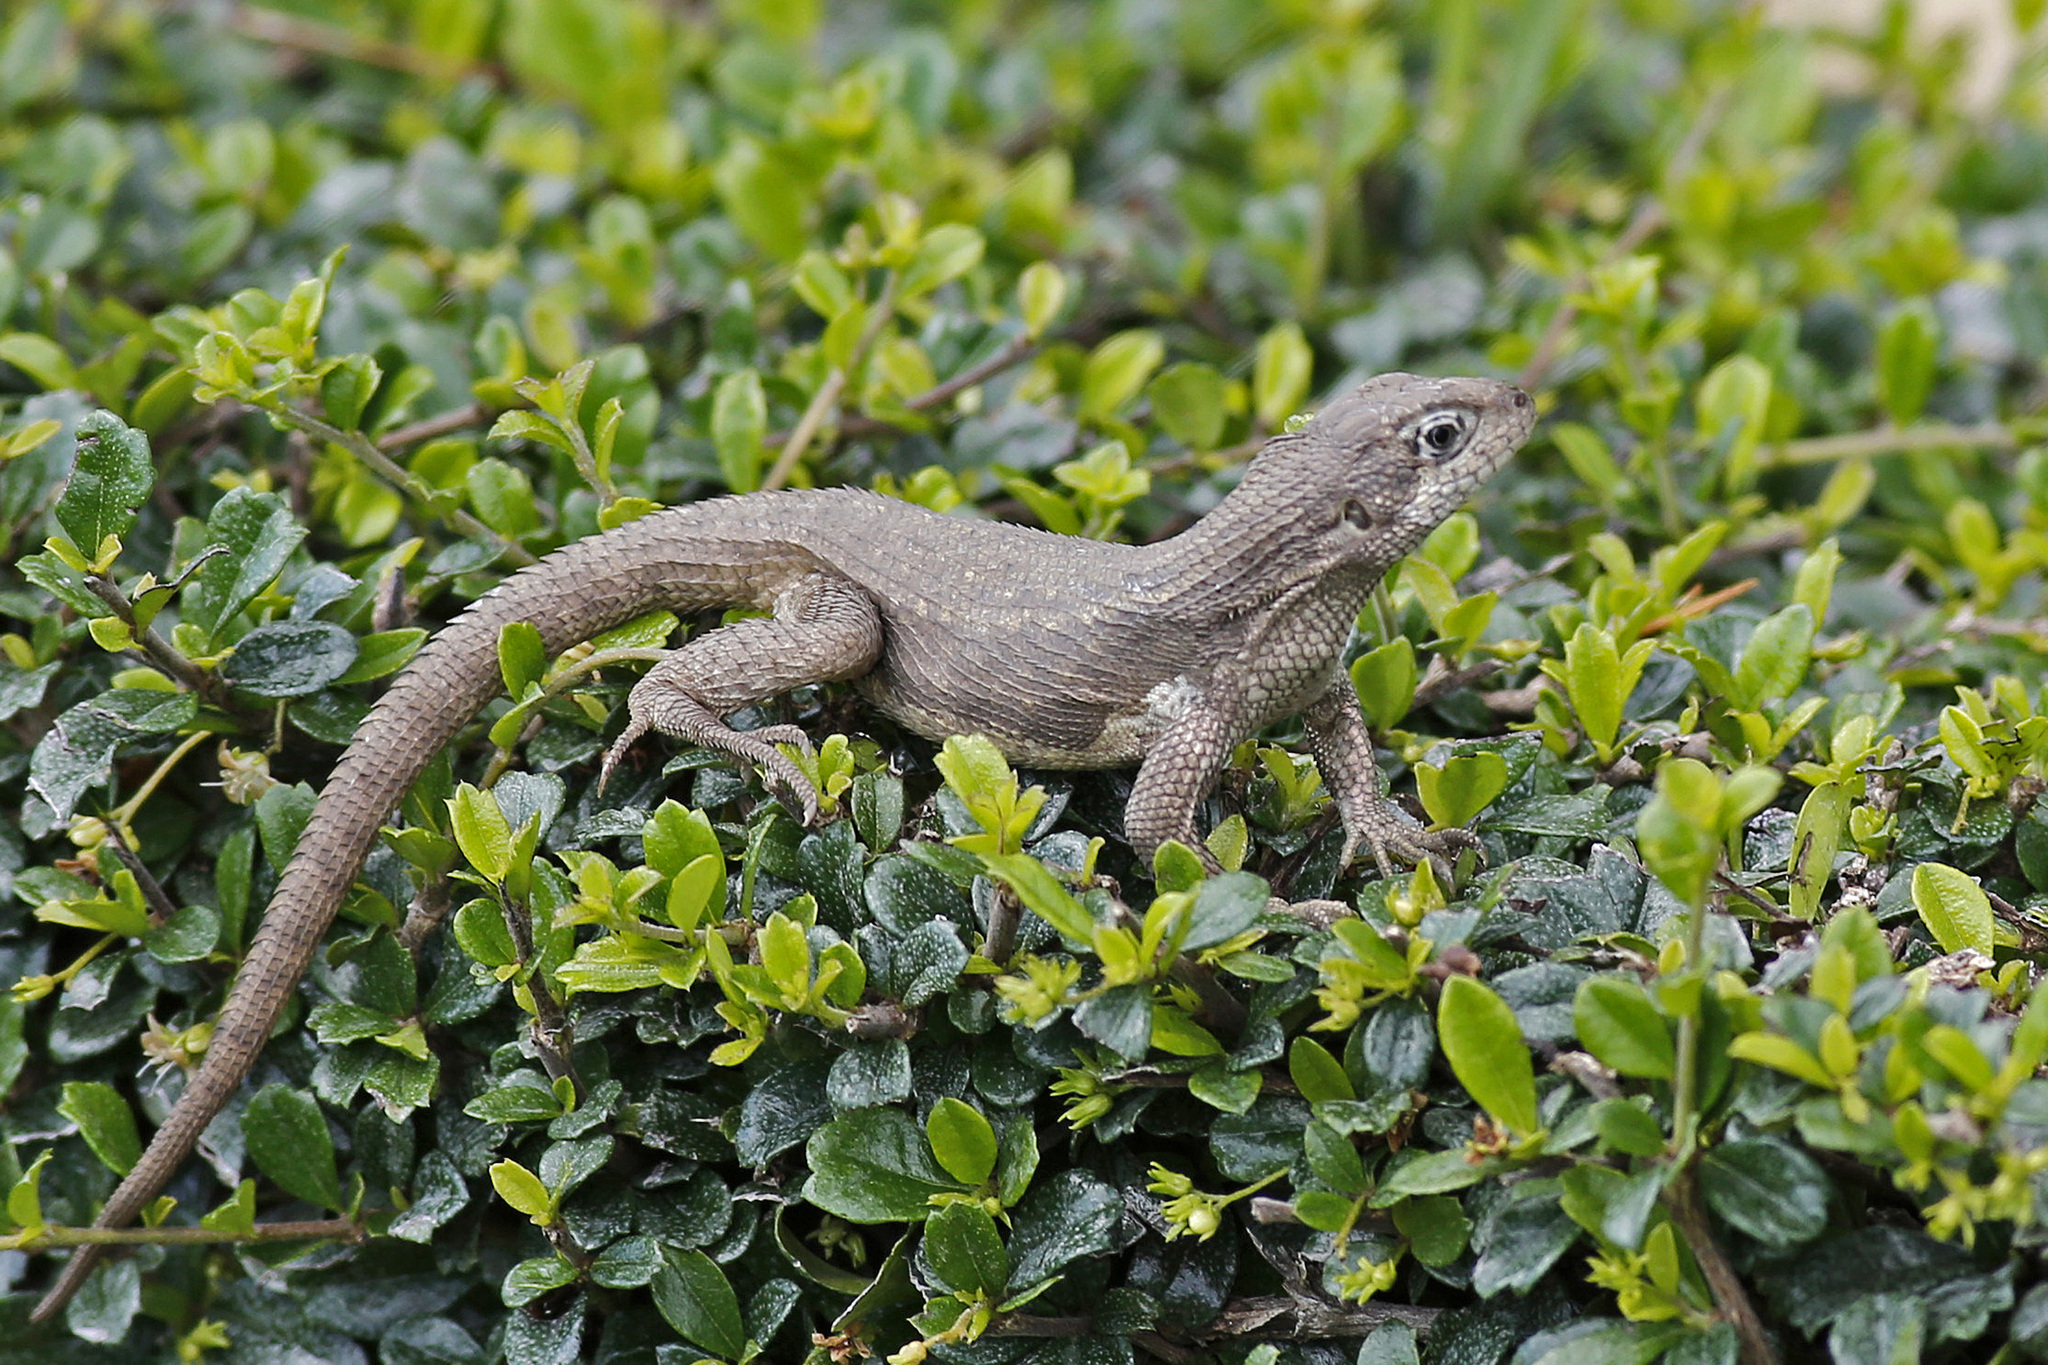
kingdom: Animalia
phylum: Chordata
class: Squamata
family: Leiocephalidae
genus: Leiocephalus
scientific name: Leiocephalus carinatus
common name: Northern curly-tailed lizard
